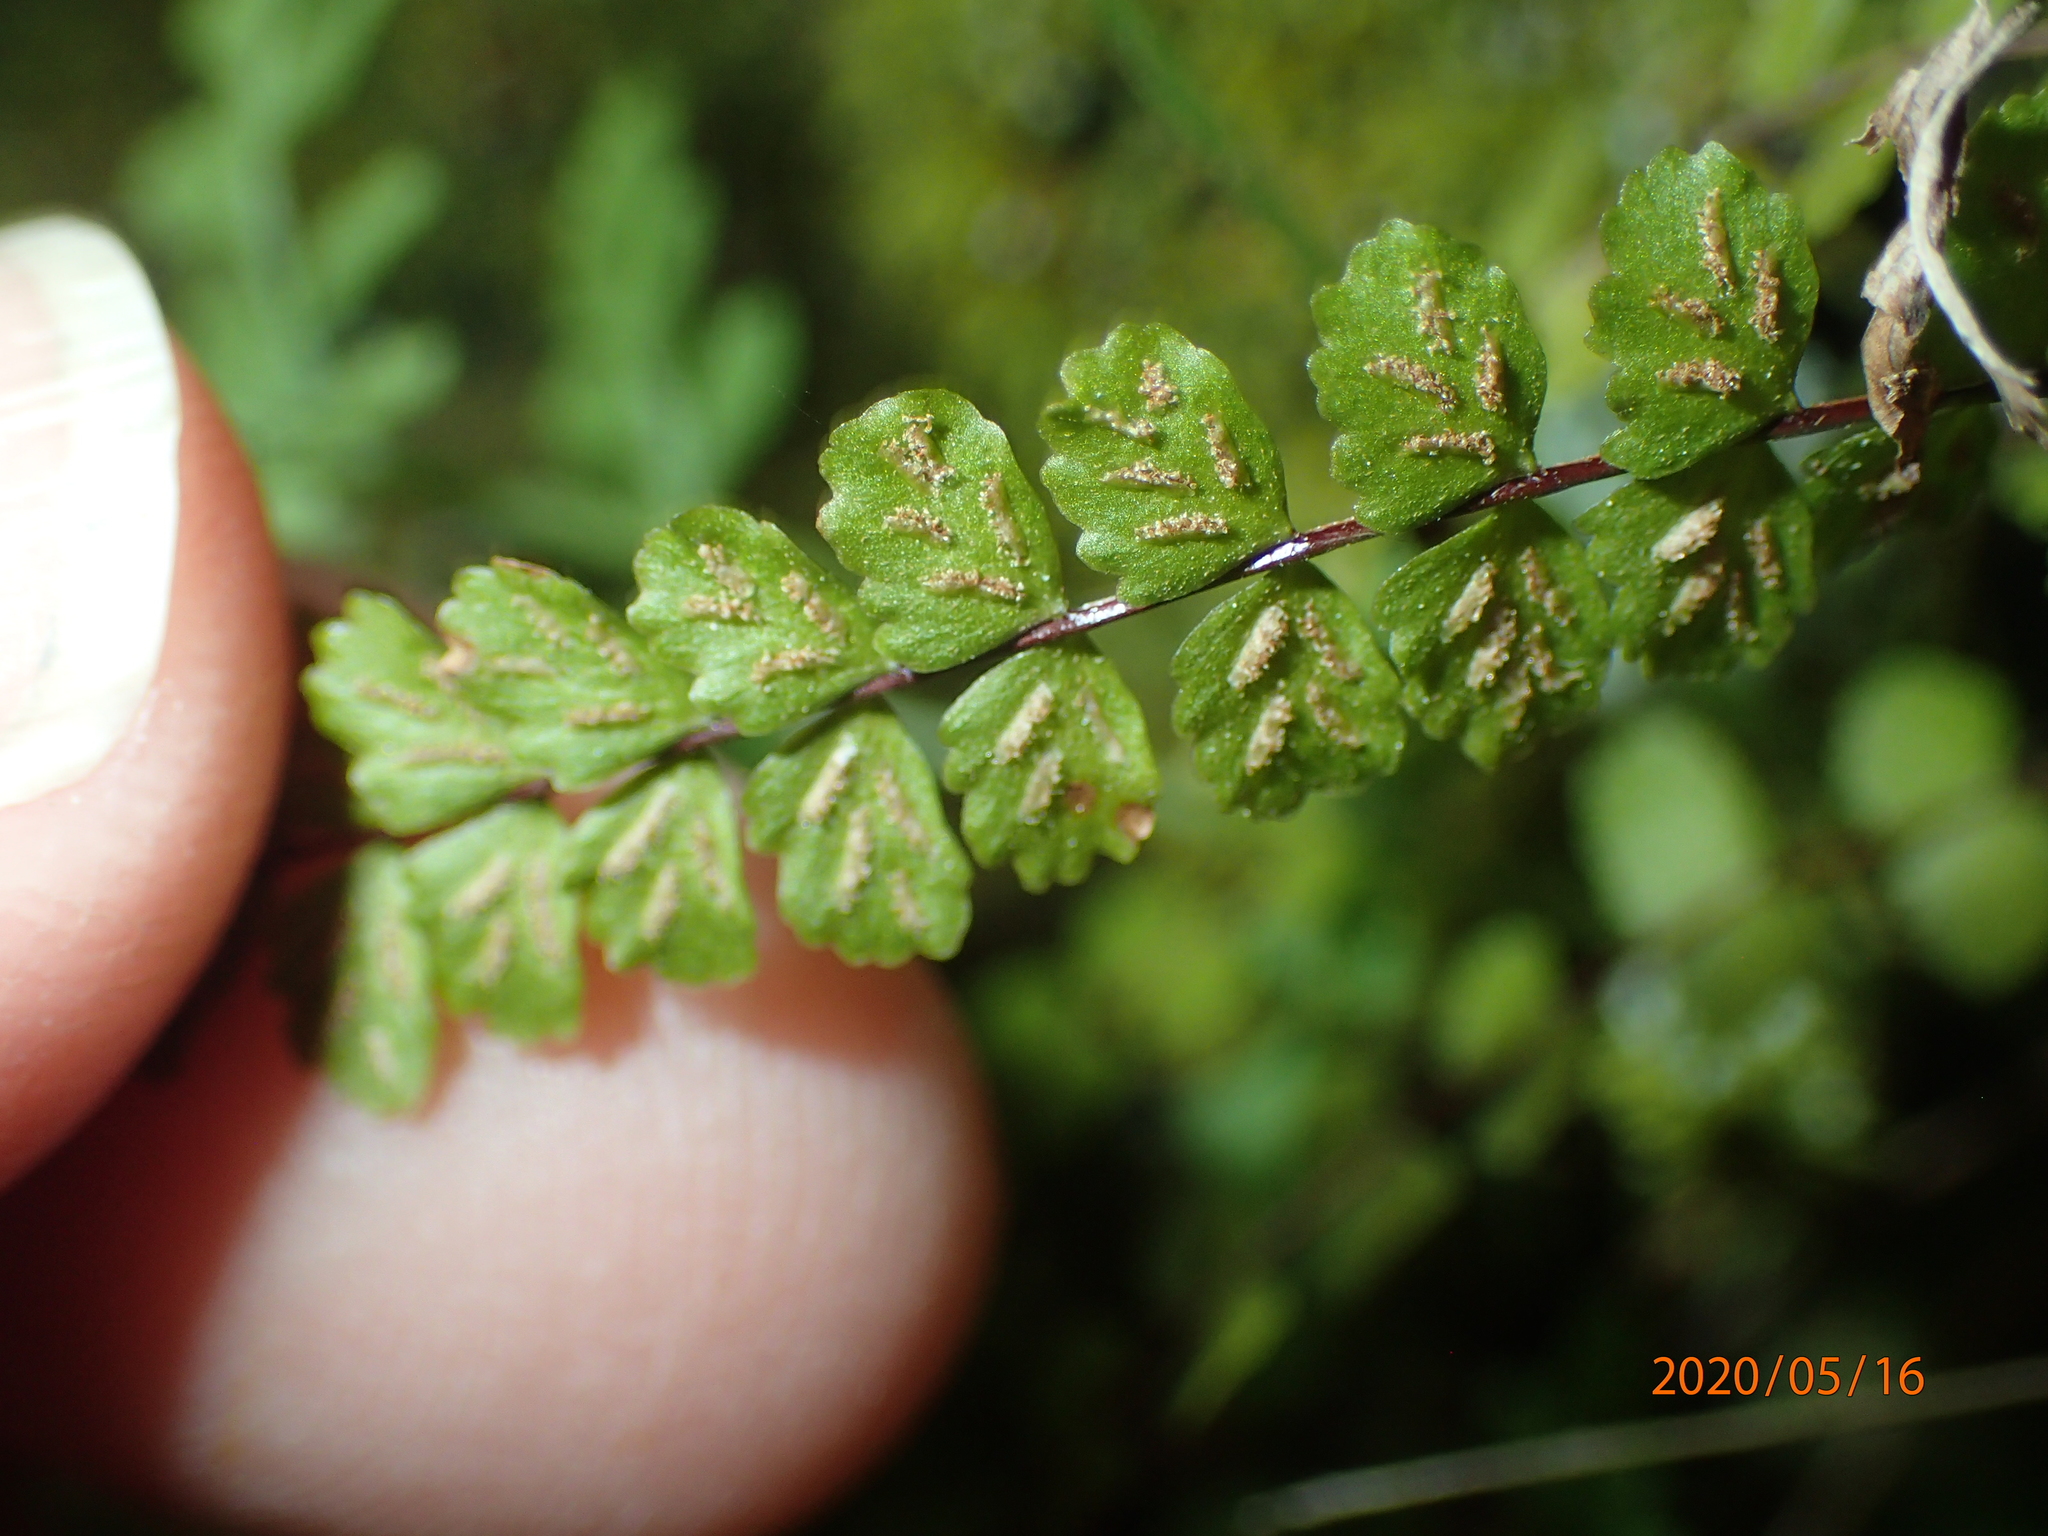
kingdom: Plantae
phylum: Tracheophyta
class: Polypodiopsida
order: Polypodiales
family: Aspleniaceae
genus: Asplenium
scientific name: Asplenium trichomanes
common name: Maidenhair spleenwort
